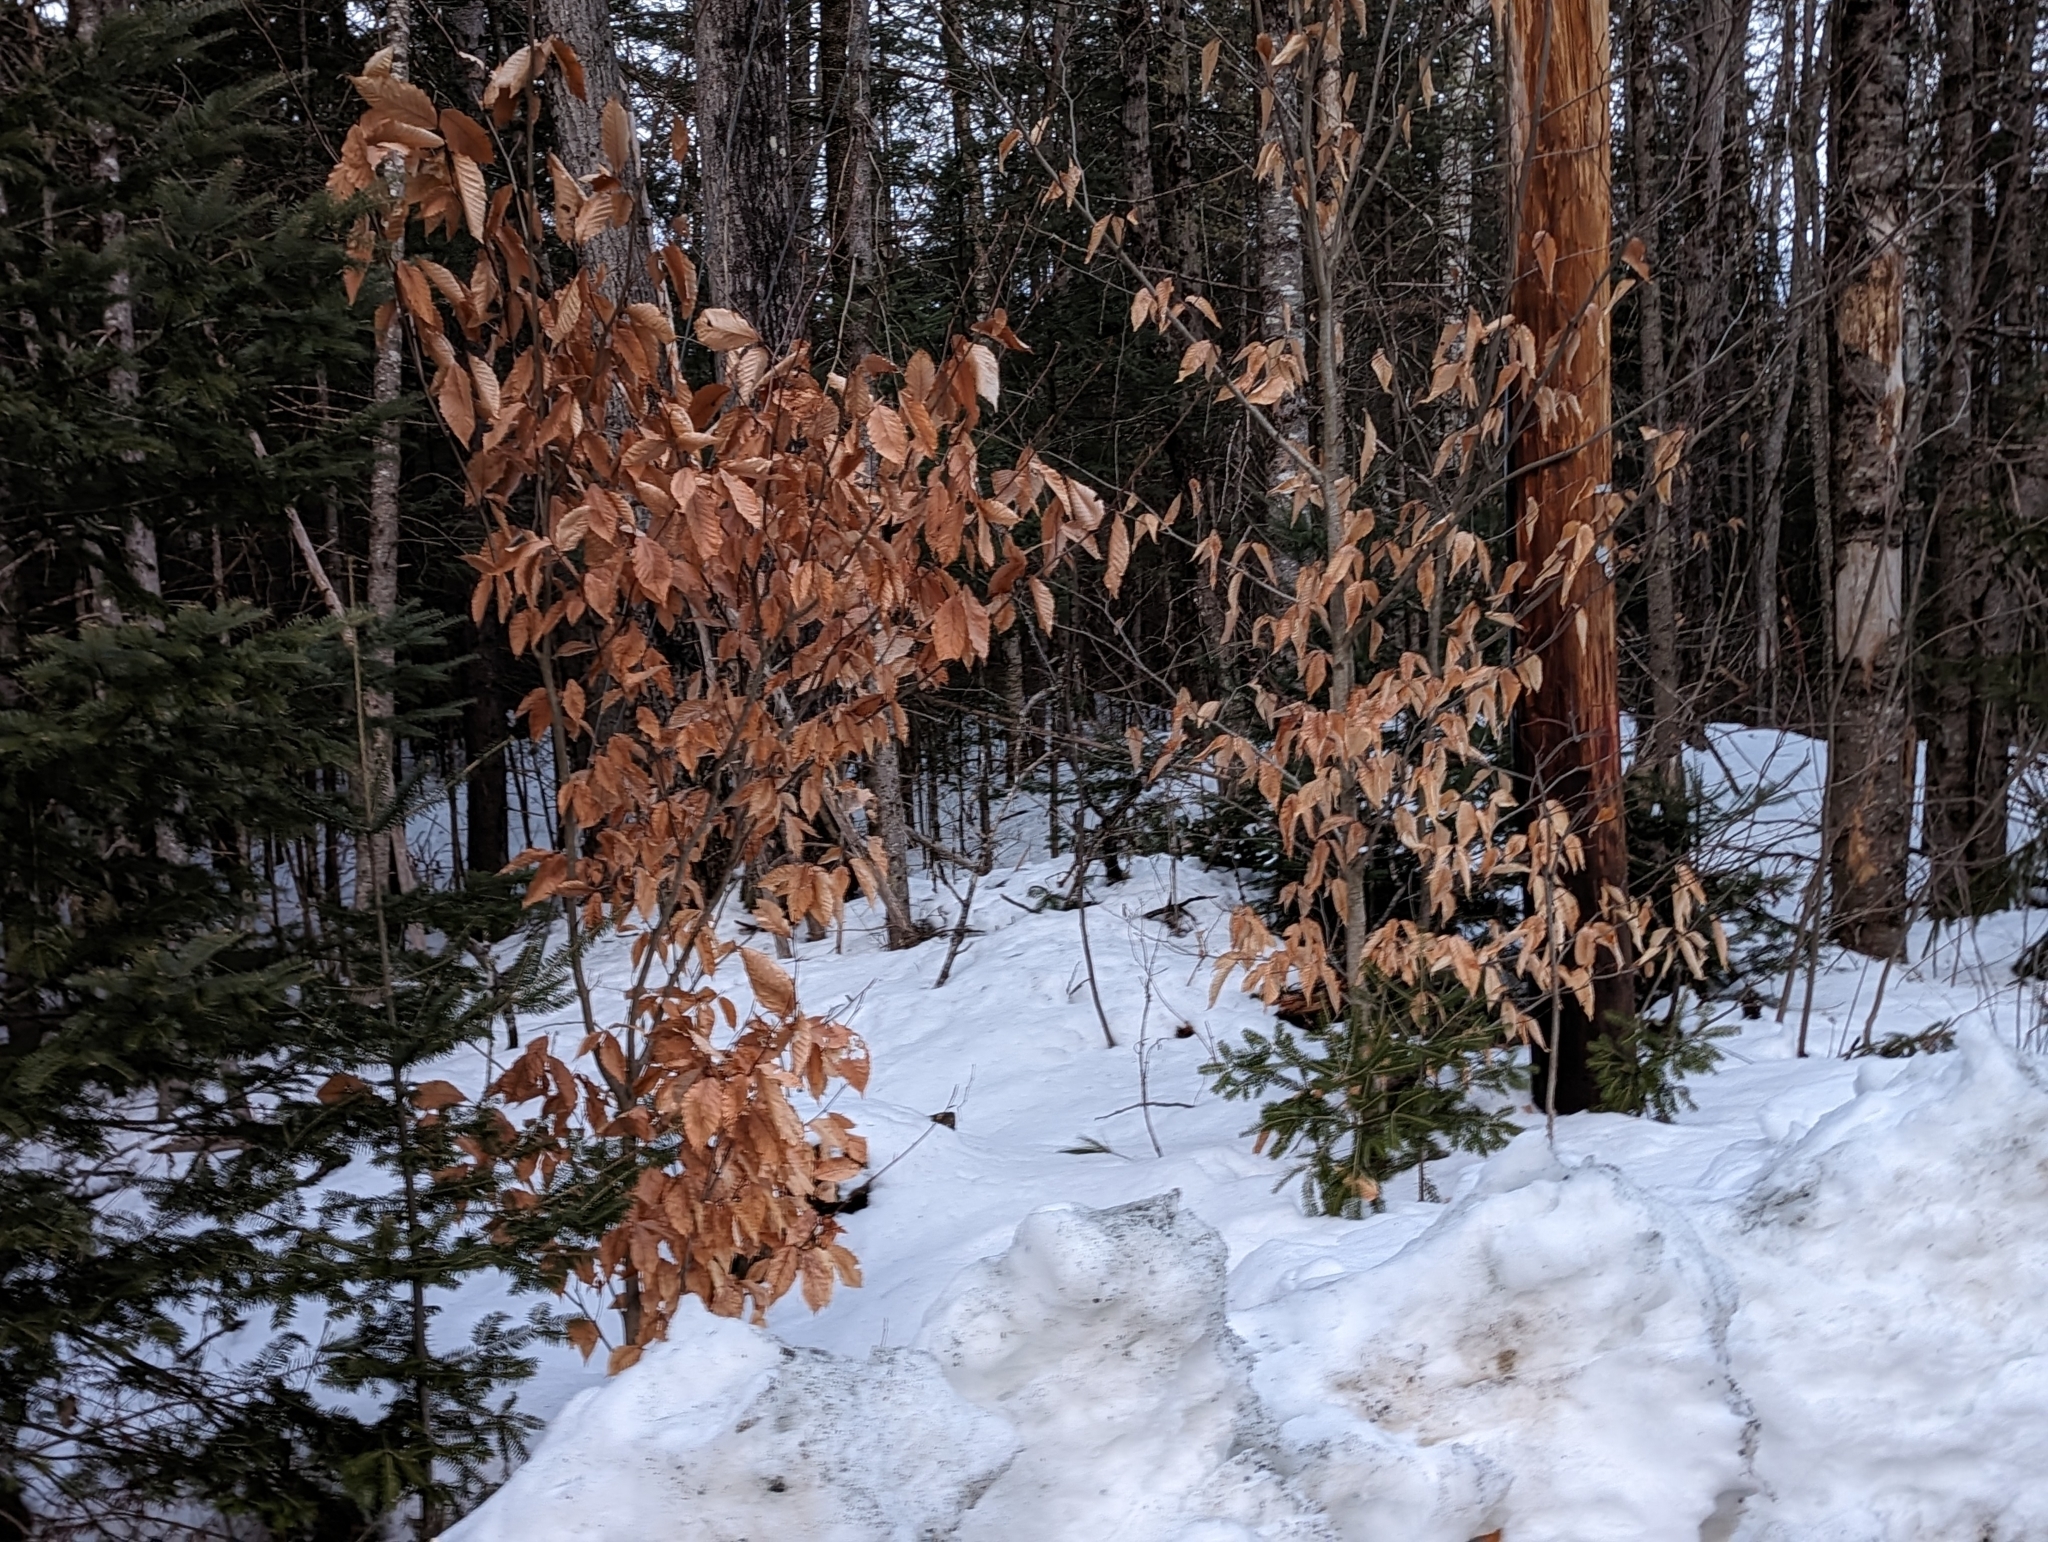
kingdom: Plantae
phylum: Tracheophyta
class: Magnoliopsida
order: Fagales
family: Fagaceae
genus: Fagus
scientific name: Fagus grandifolia
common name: American beech
